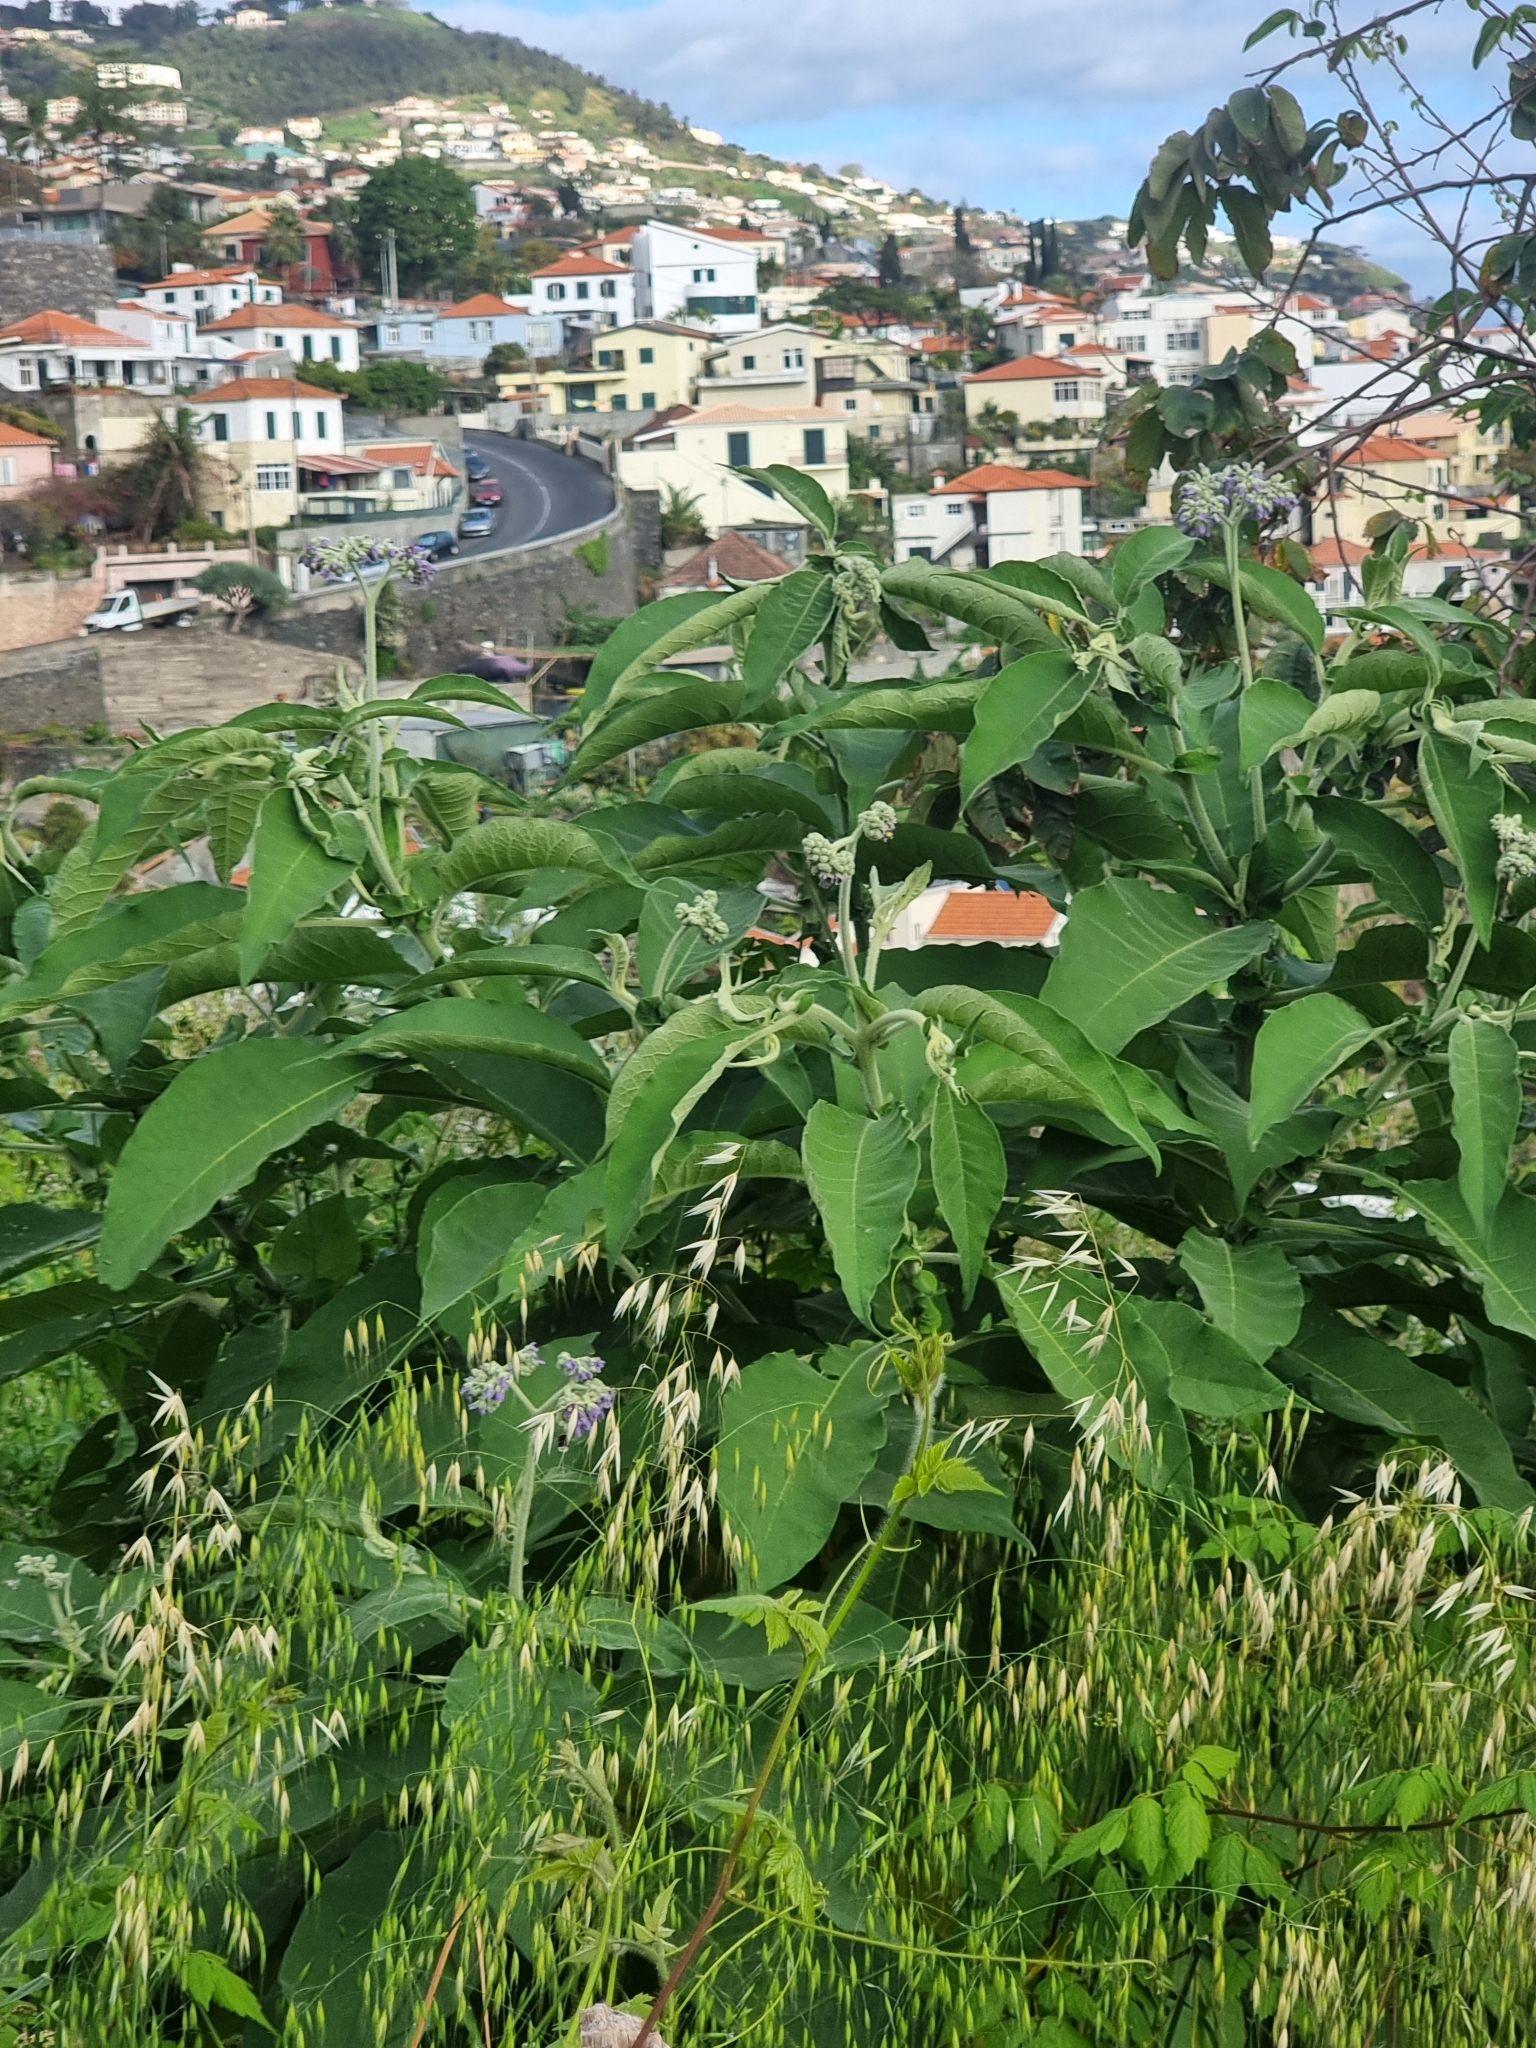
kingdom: Plantae
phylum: Tracheophyta
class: Magnoliopsida
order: Solanales
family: Solanaceae
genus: Solanum
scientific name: Solanum mauritianum
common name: Earleaf nightshade
